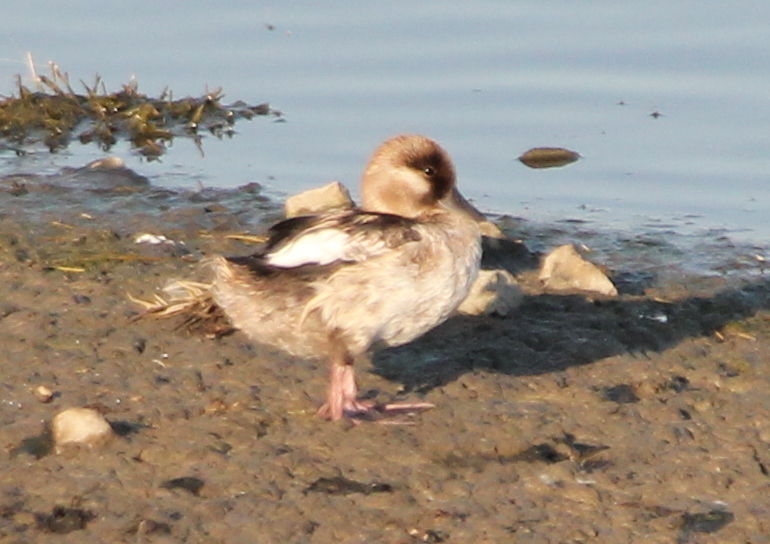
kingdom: Animalia
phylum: Chordata
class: Aves
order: Anseriformes
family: Anatidae
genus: Bucephala
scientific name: Bucephala albeola
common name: Bufflehead
